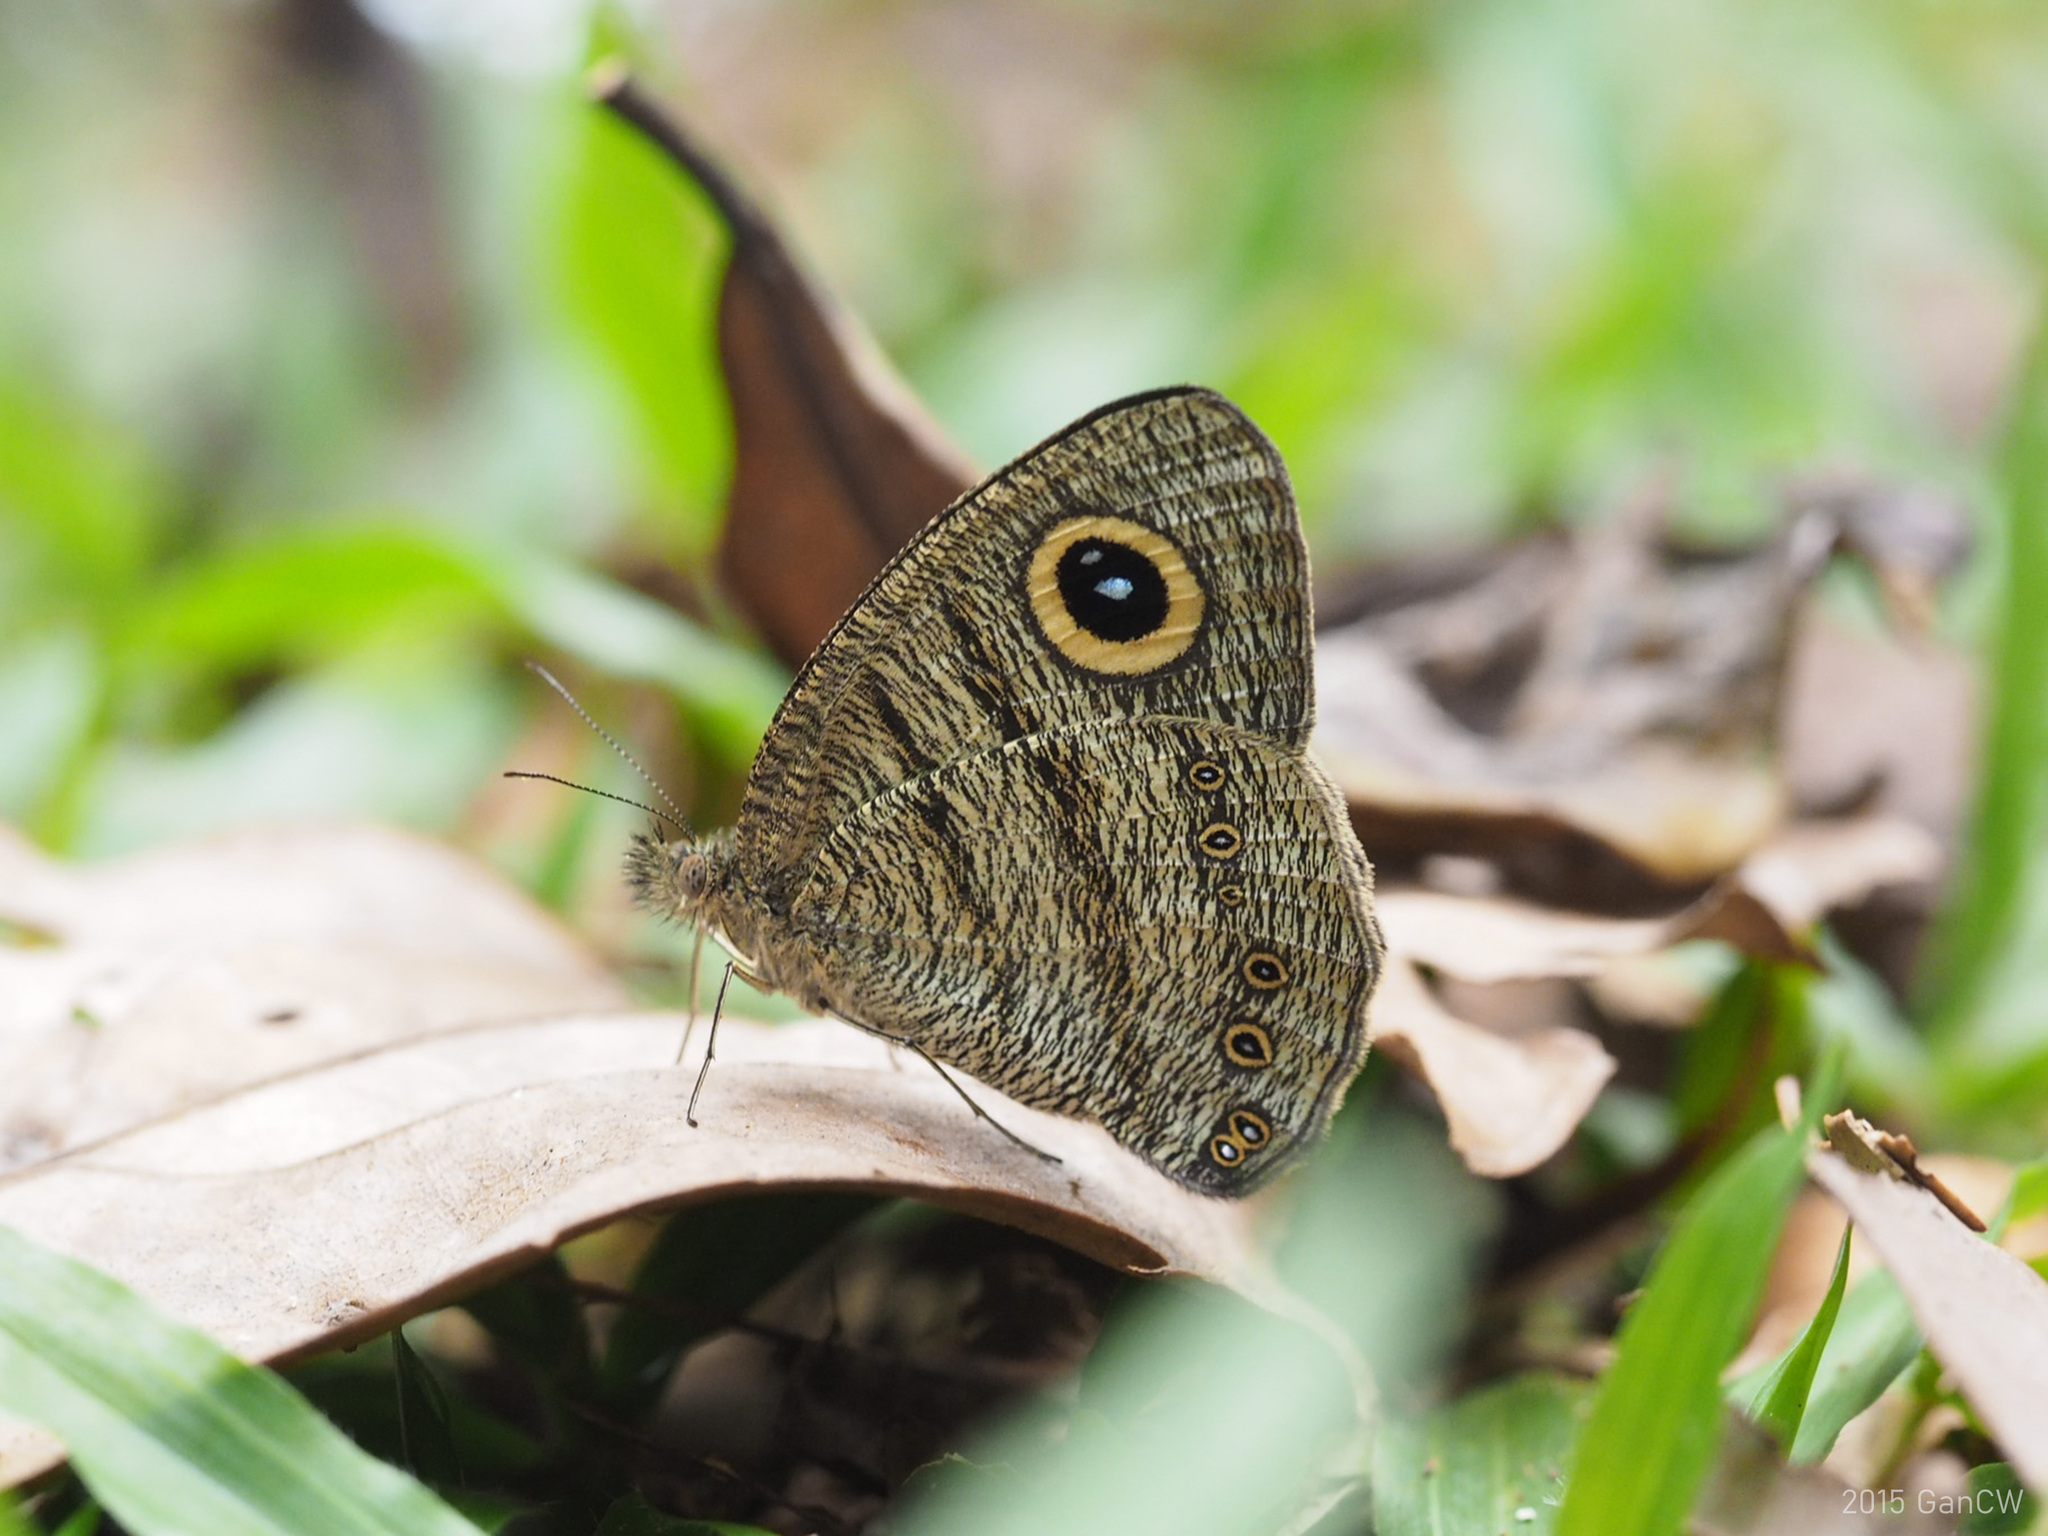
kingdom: Animalia
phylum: Arthropoda
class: Insecta
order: Lepidoptera
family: Nymphalidae
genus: Ypthima
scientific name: Ypthima fasciata
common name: Malayan six-ring
